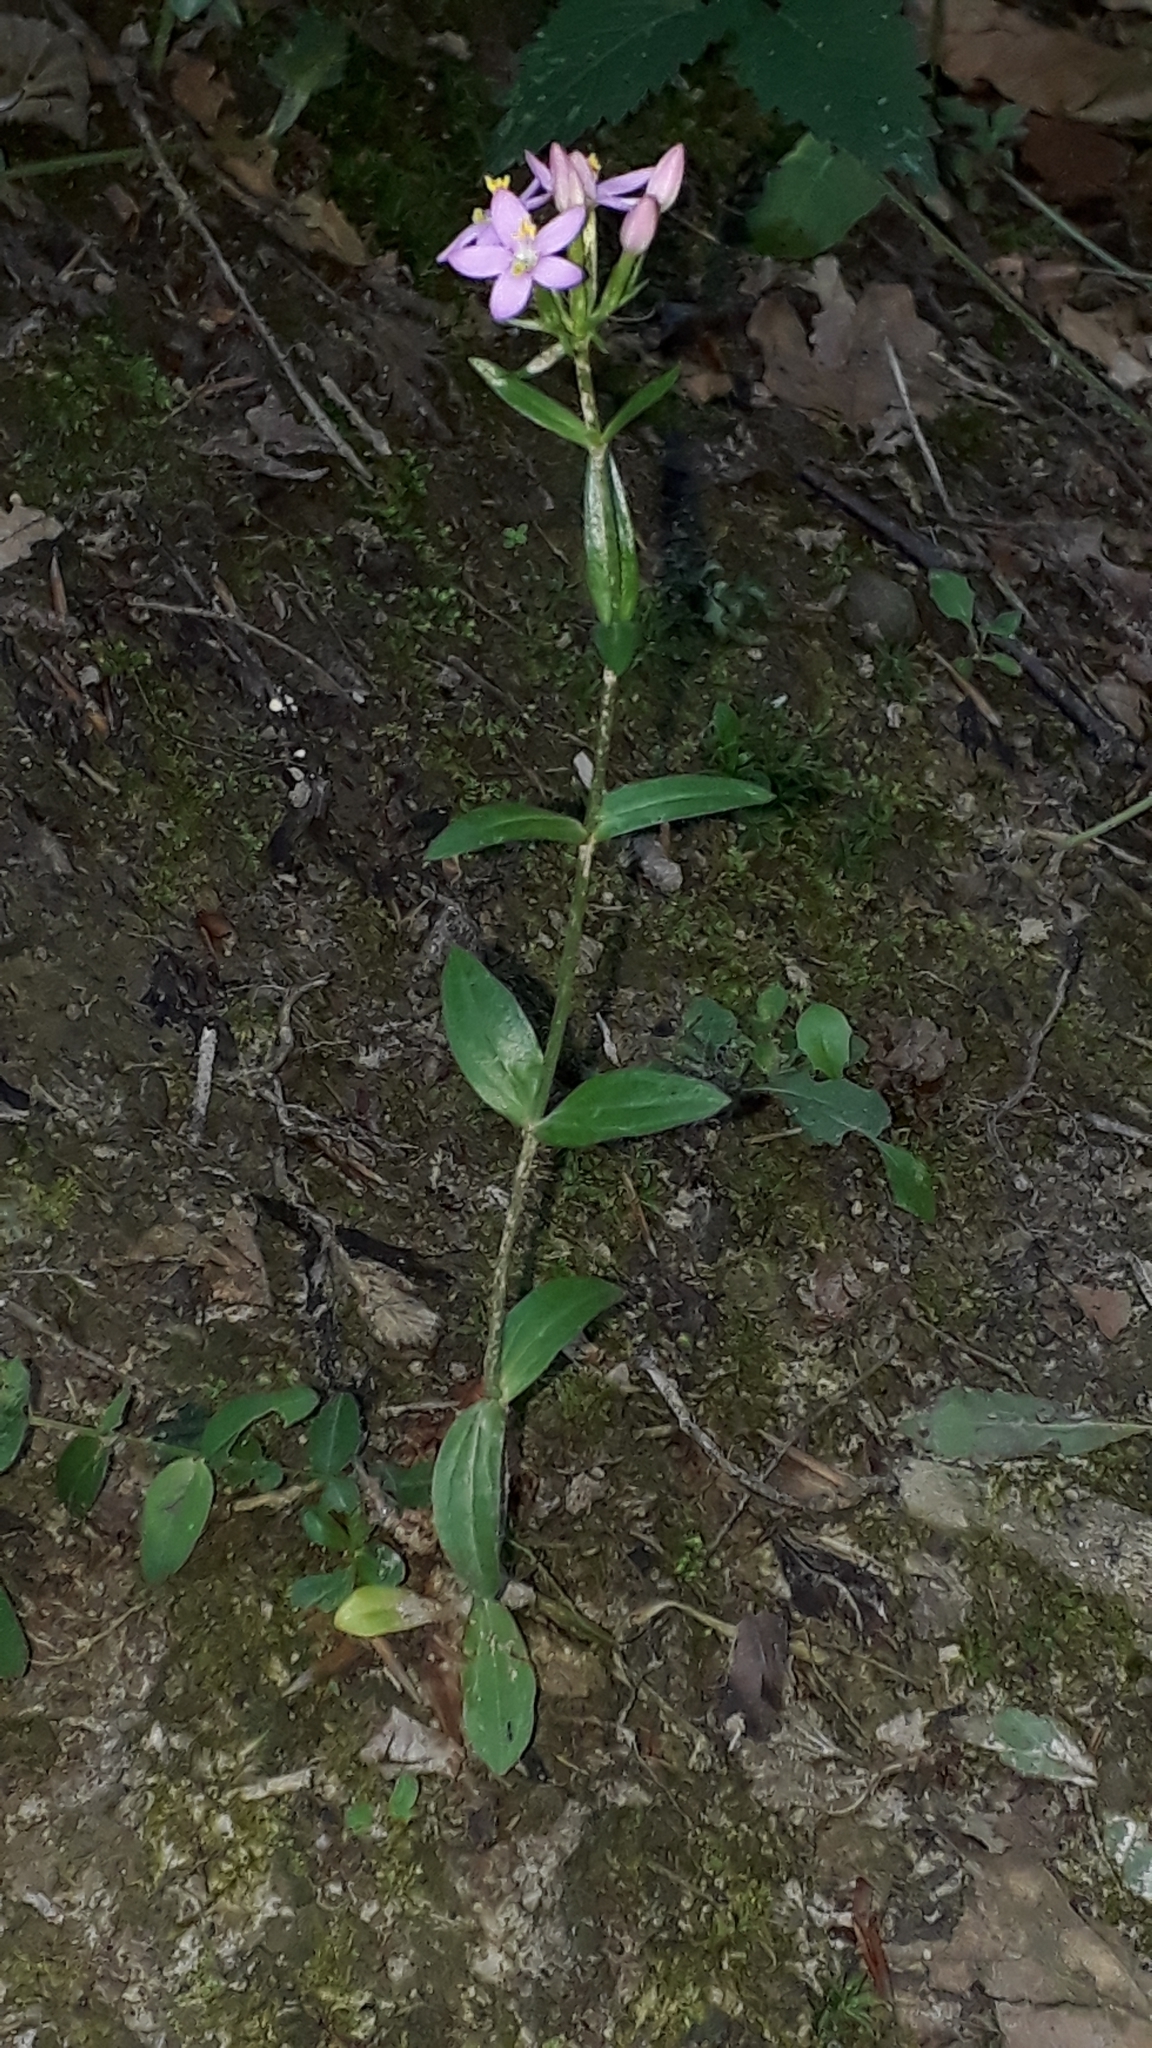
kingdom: Plantae
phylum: Tracheophyta
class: Magnoliopsida
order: Gentianales
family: Gentianaceae
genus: Centaurium
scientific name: Centaurium erythraea
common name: Common centaury
